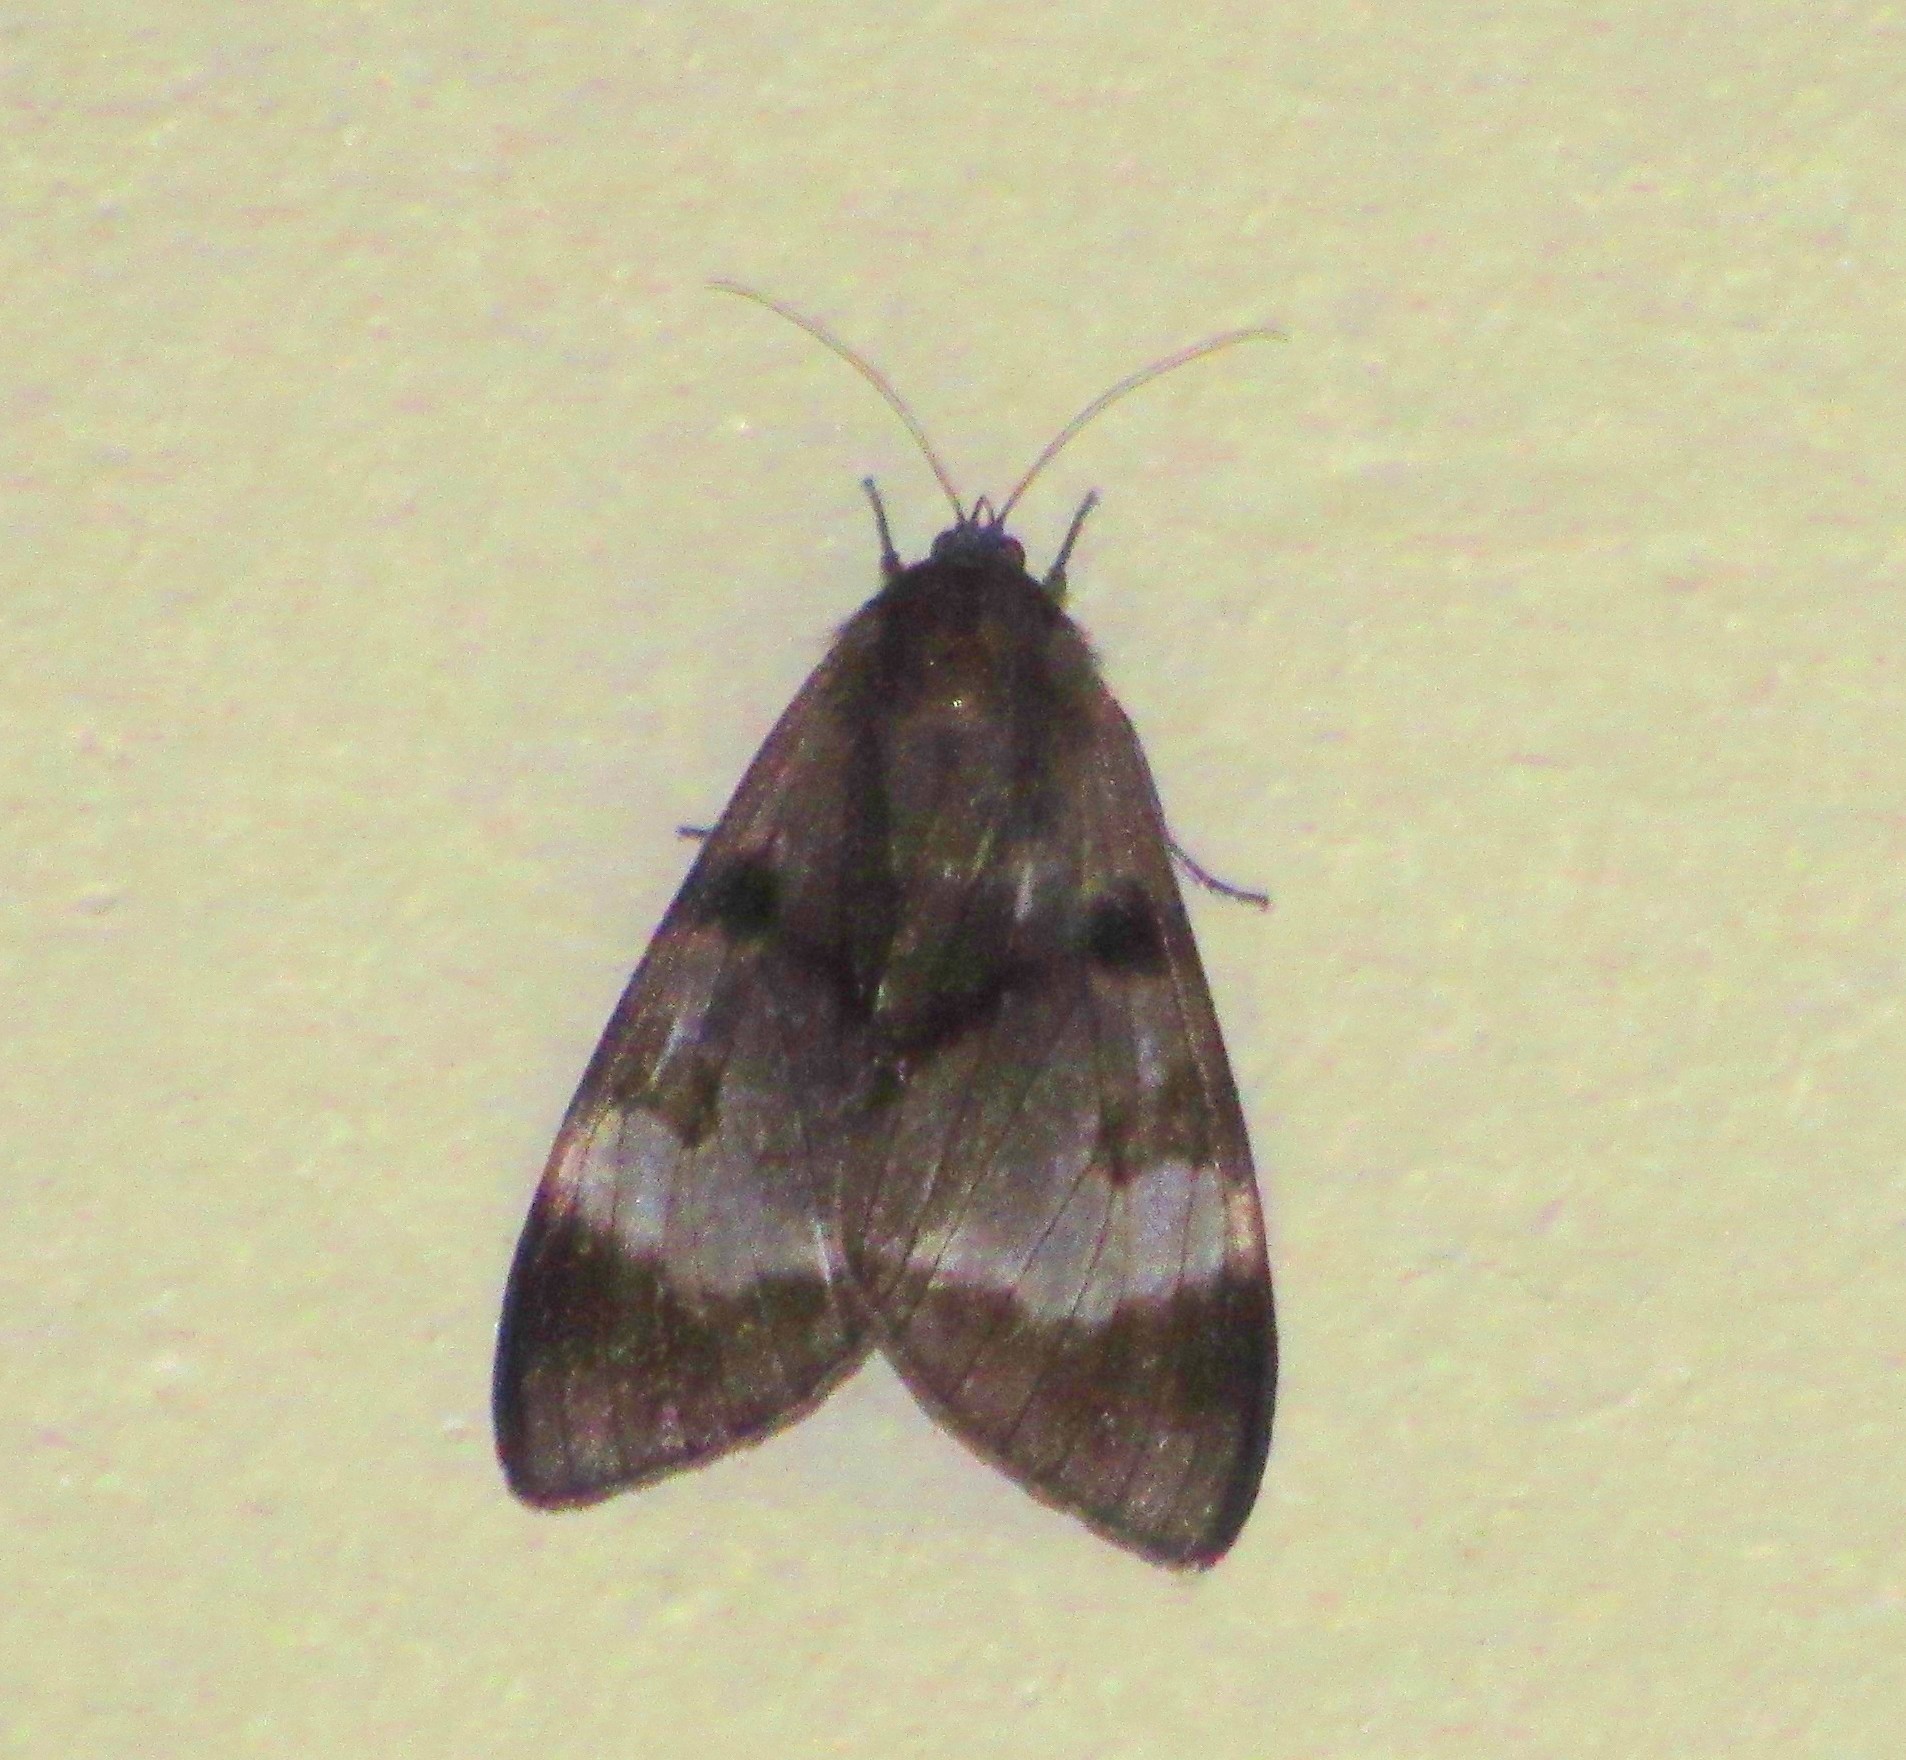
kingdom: Animalia
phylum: Arthropoda
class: Insecta
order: Lepidoptera
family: Erebidae
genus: Dysschema
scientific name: Dysschema subapicalis
